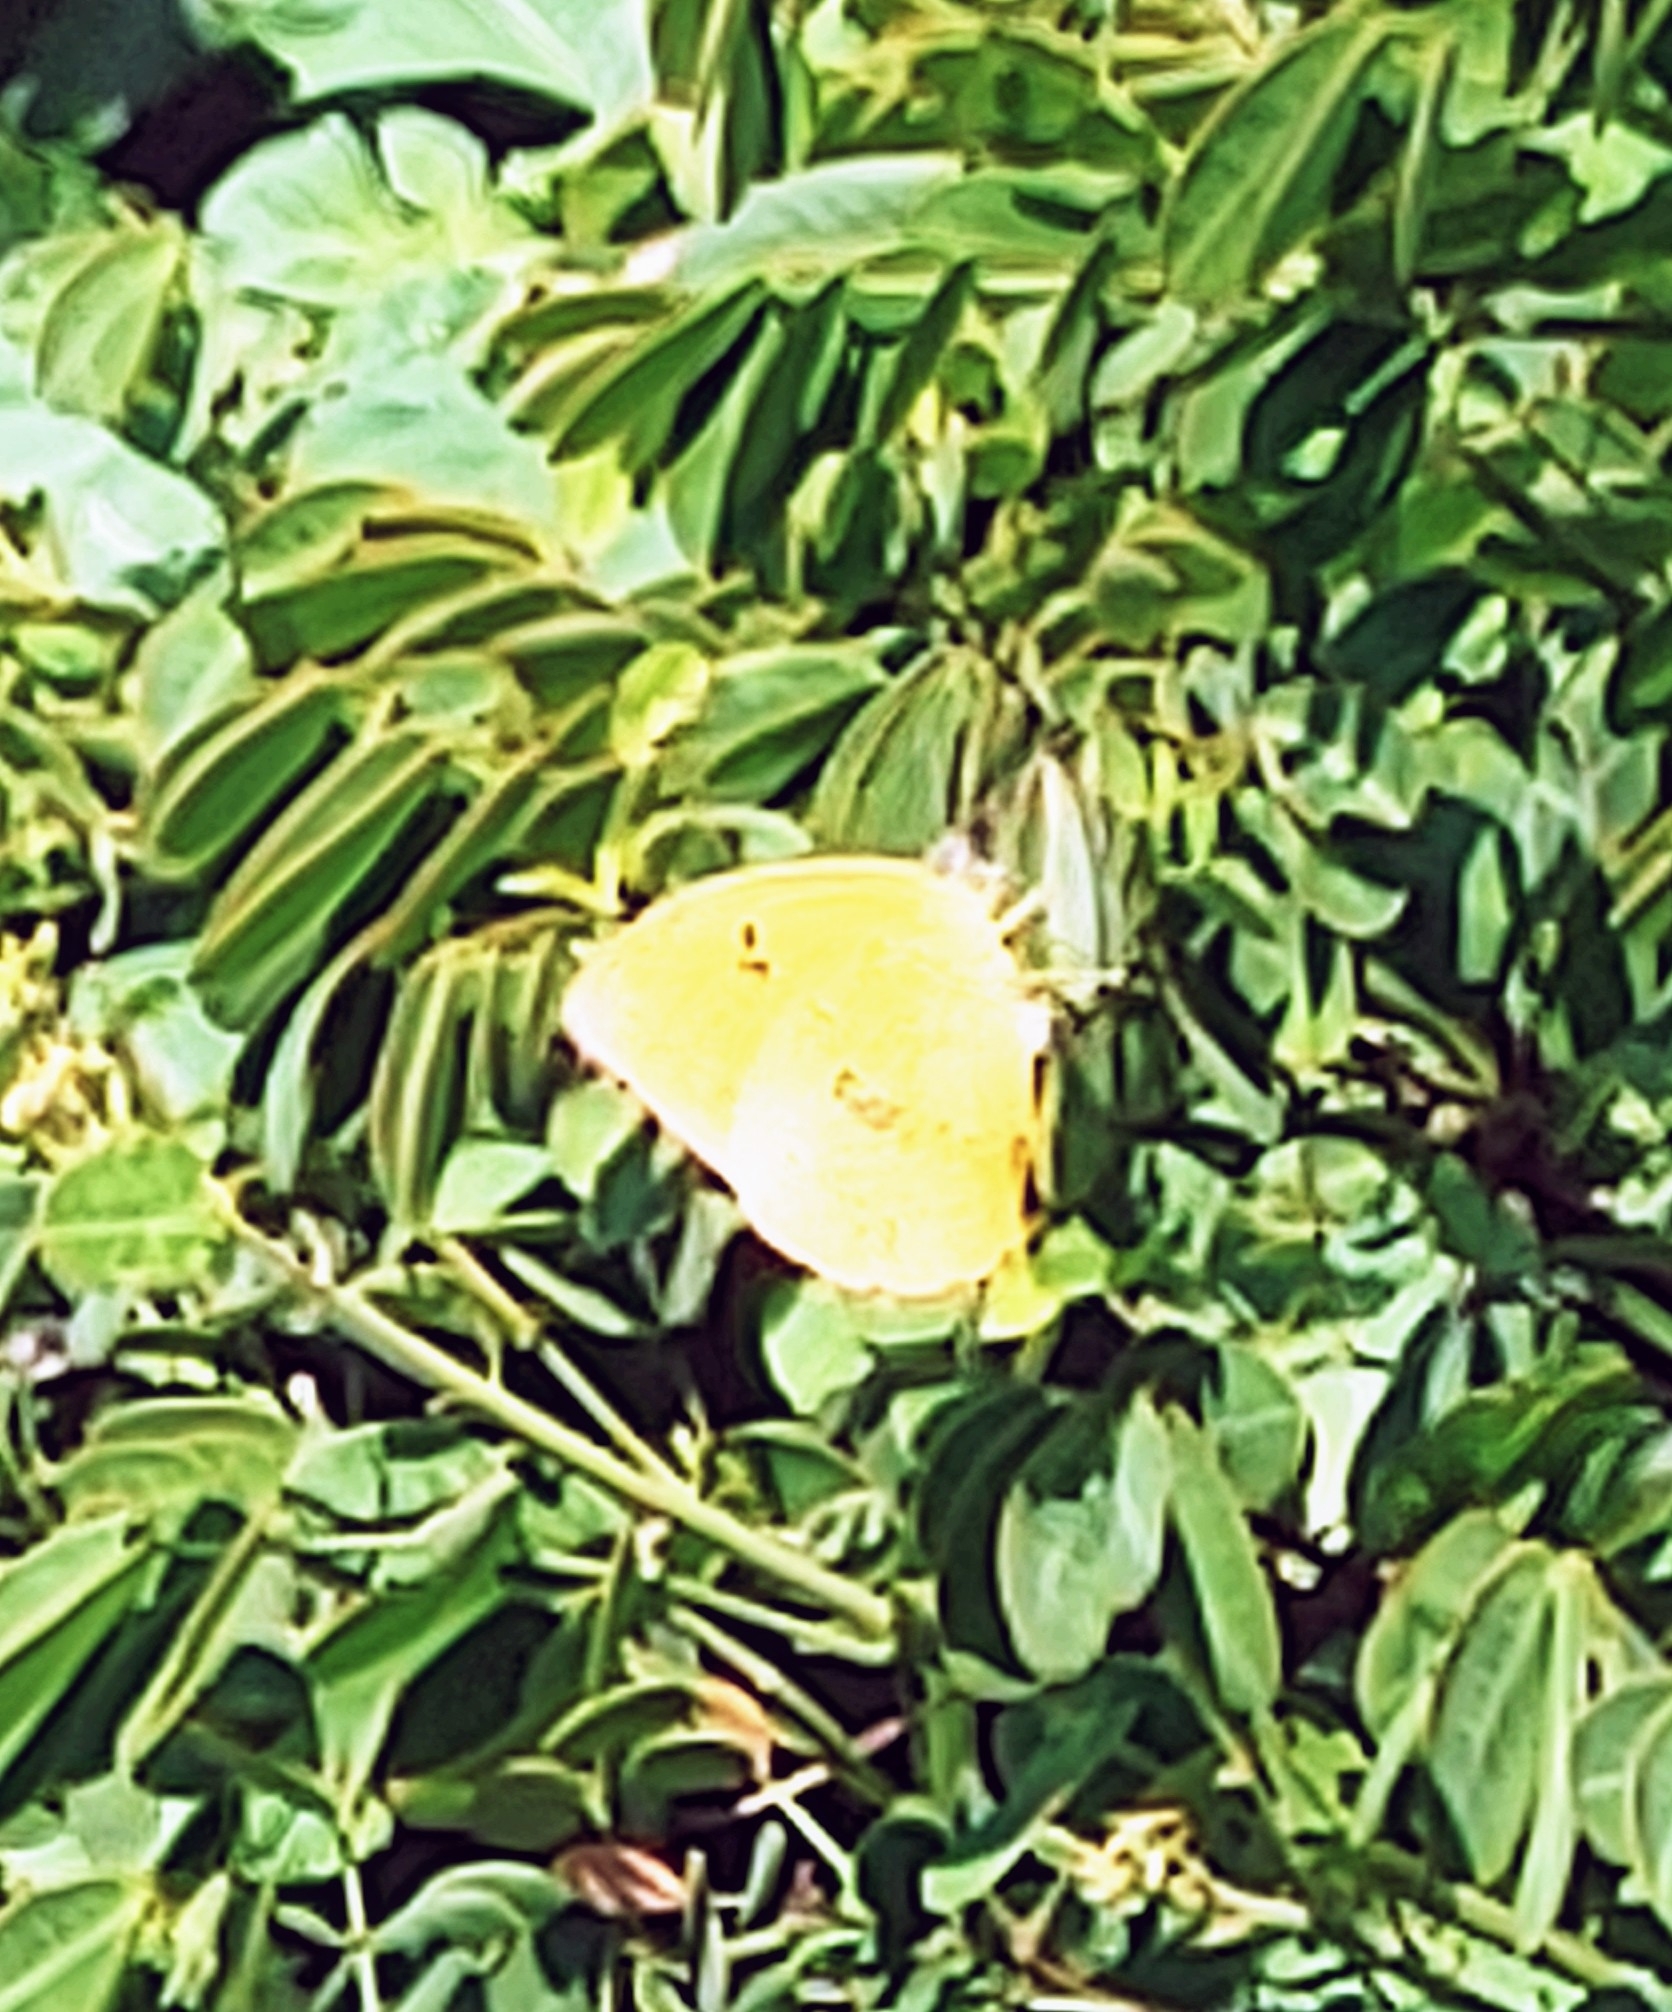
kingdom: Animalia
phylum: Arthropoda
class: Insecta
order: Lepidoptera
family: Pieridae
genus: Phoebis
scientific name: Phoebis philea
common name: Orange-barred giant sulphur
